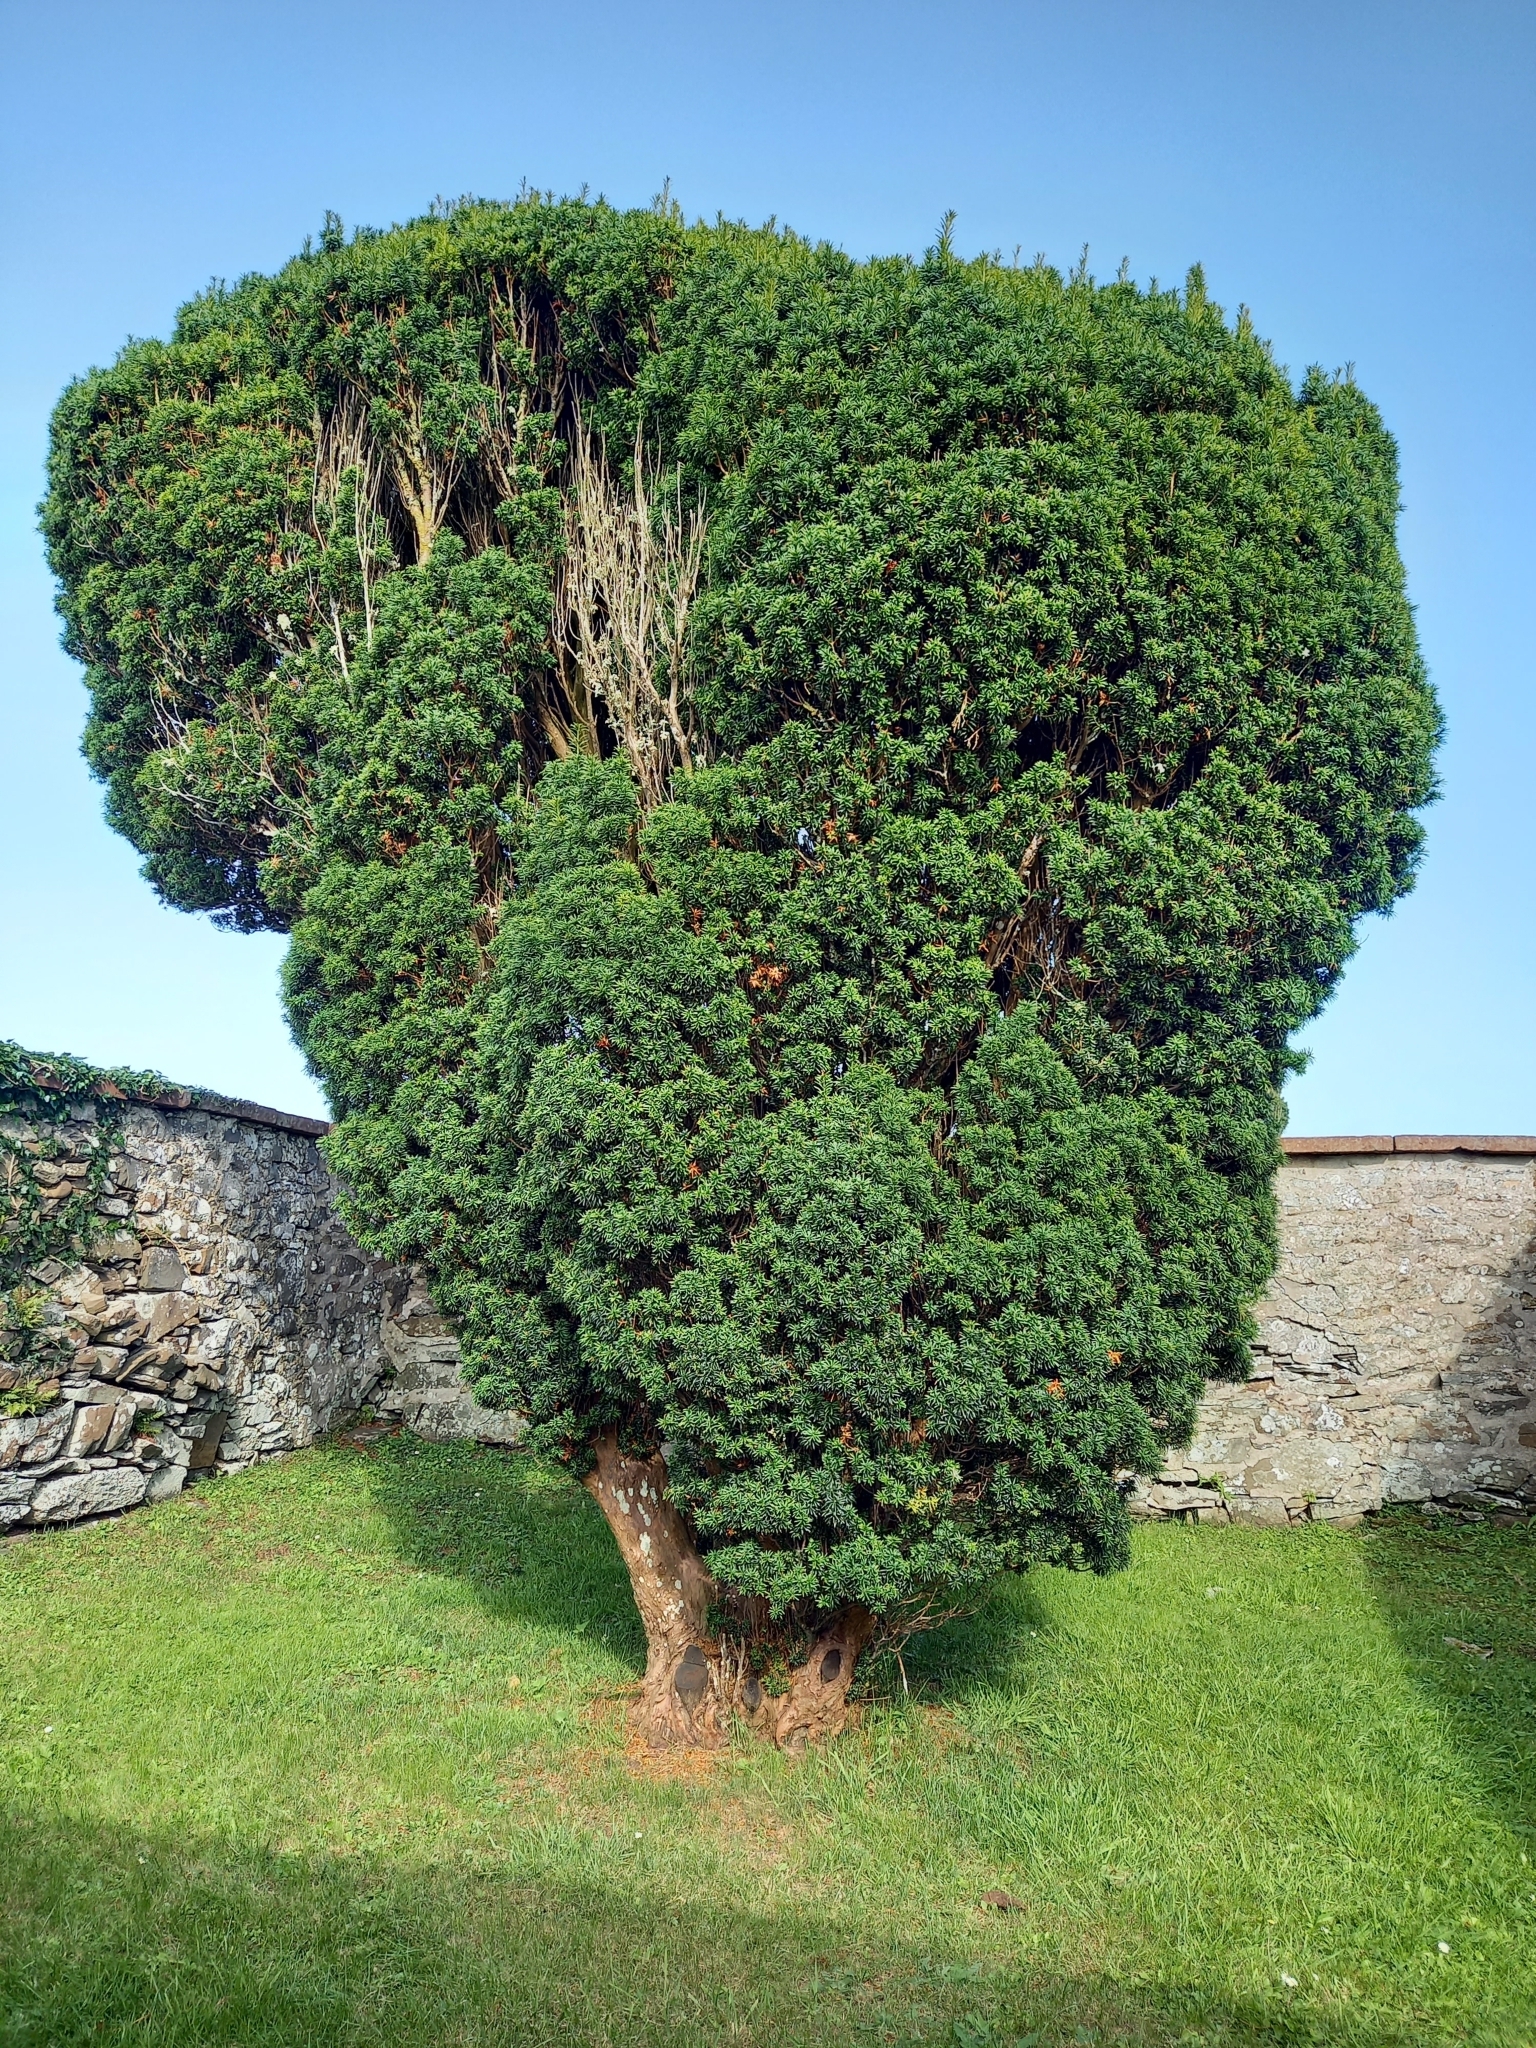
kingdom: Plantae
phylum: Tracheophyta
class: Pinopsida
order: Pinales
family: Taxaceae
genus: Taxus
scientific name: Taxus baccata
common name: Yew
